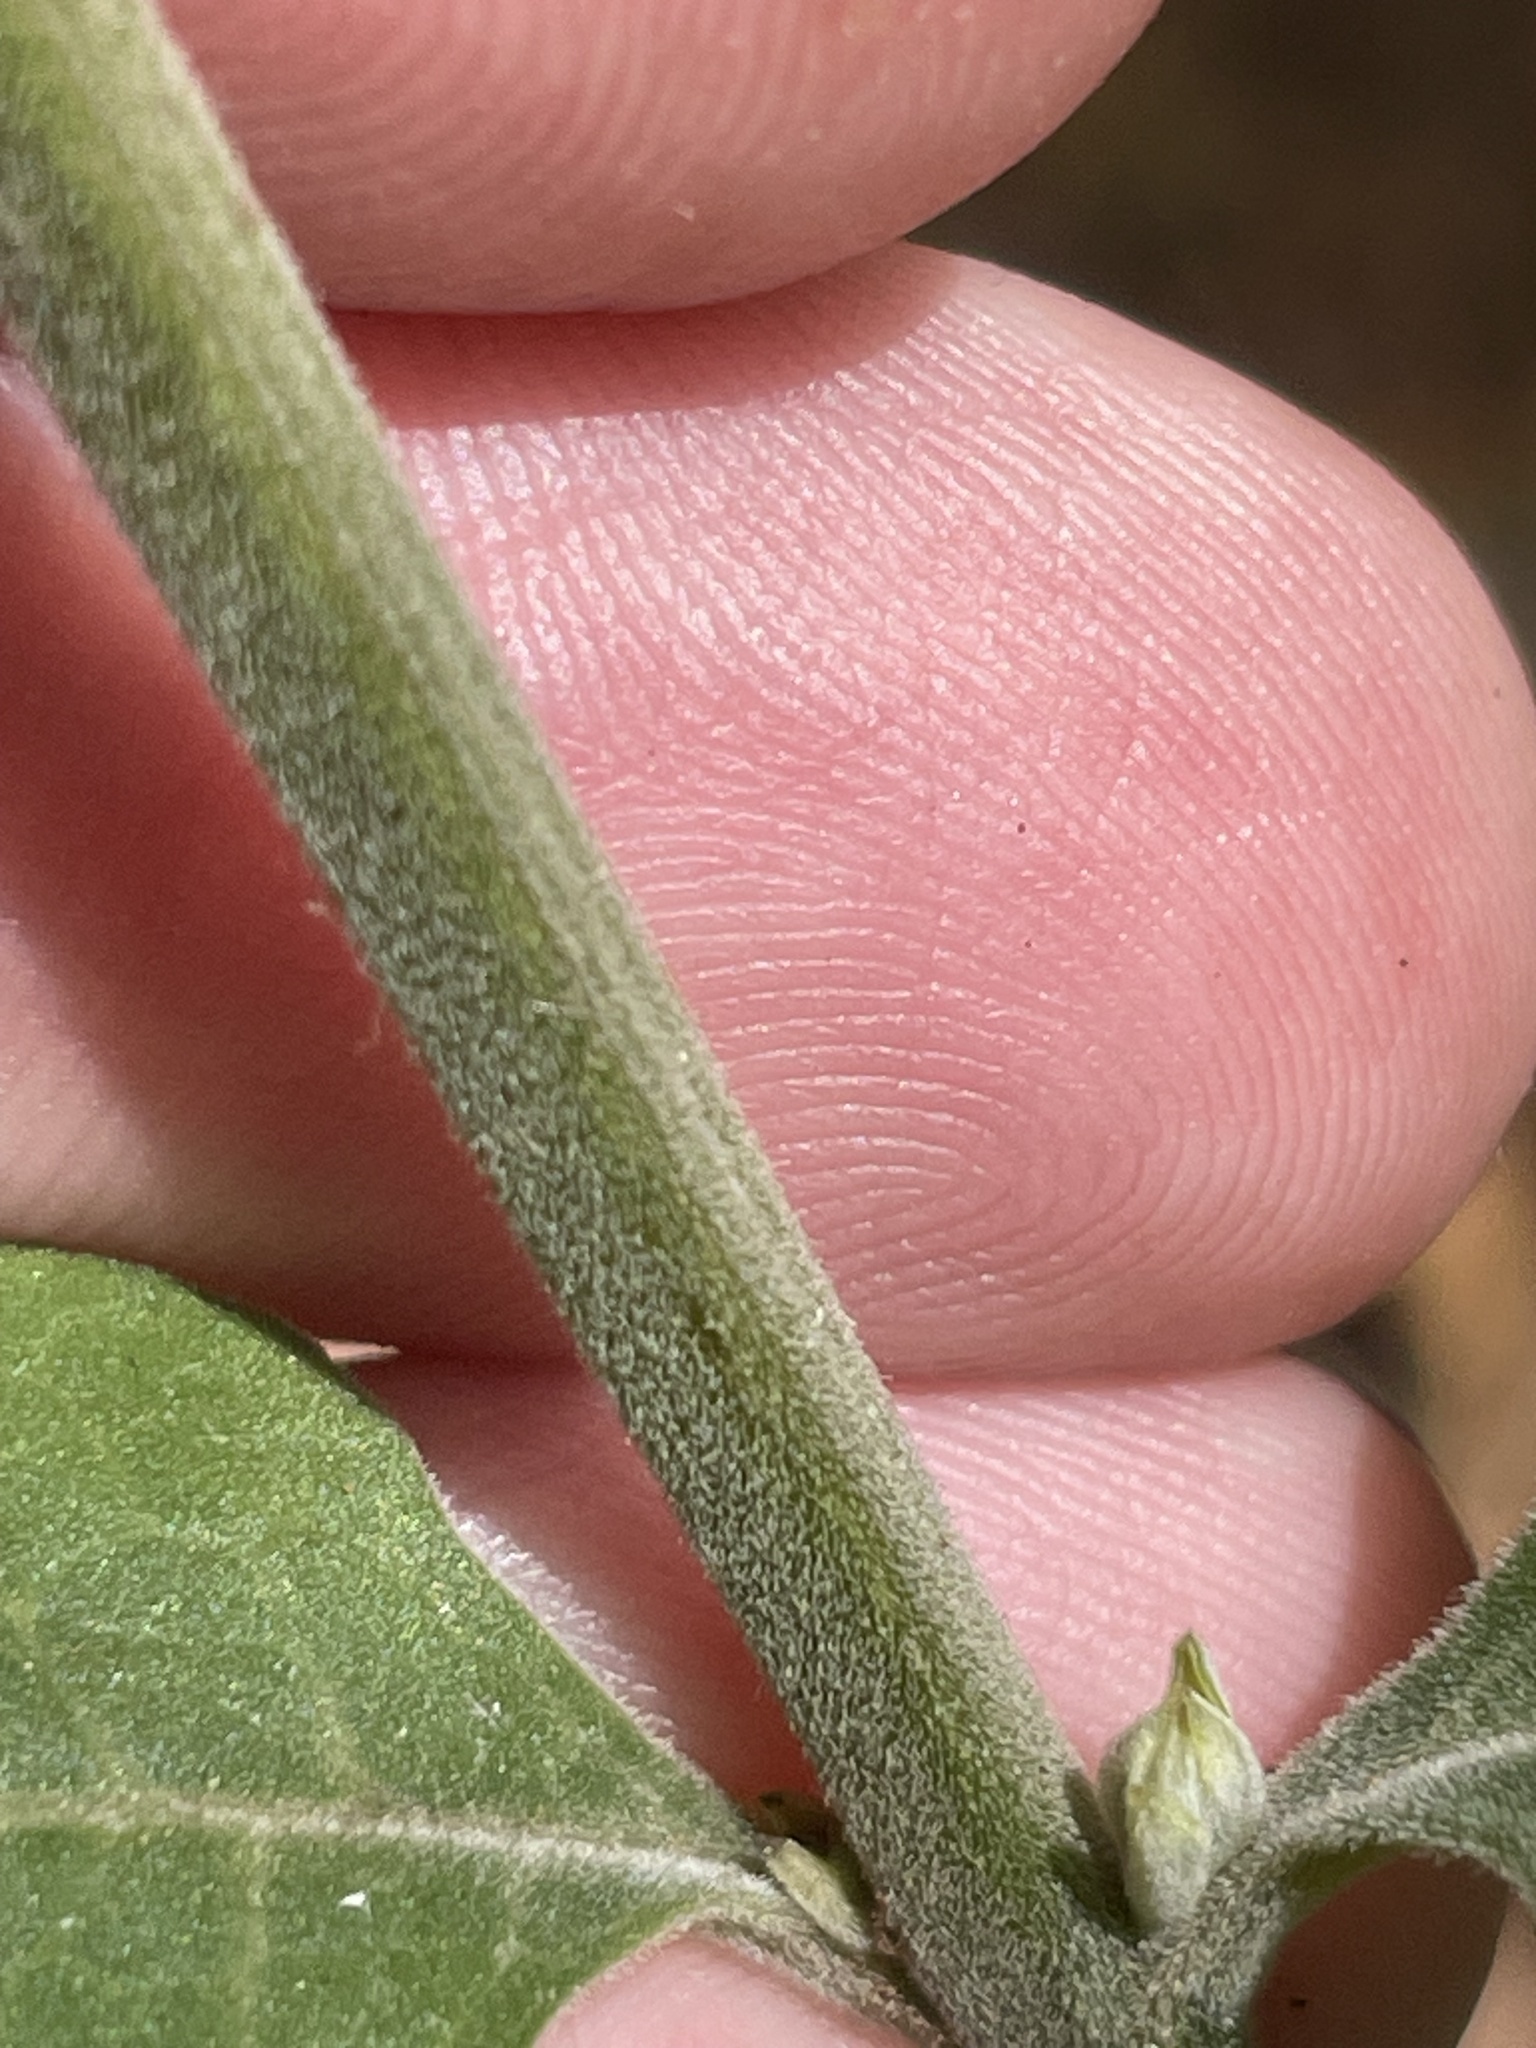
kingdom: Plantae
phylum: Tracheophyta
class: Magnoliopsida
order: Lamiales
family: Orobanchaceae
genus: Aureolaria
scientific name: Aureolaria virginica
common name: Downy false foxglove
